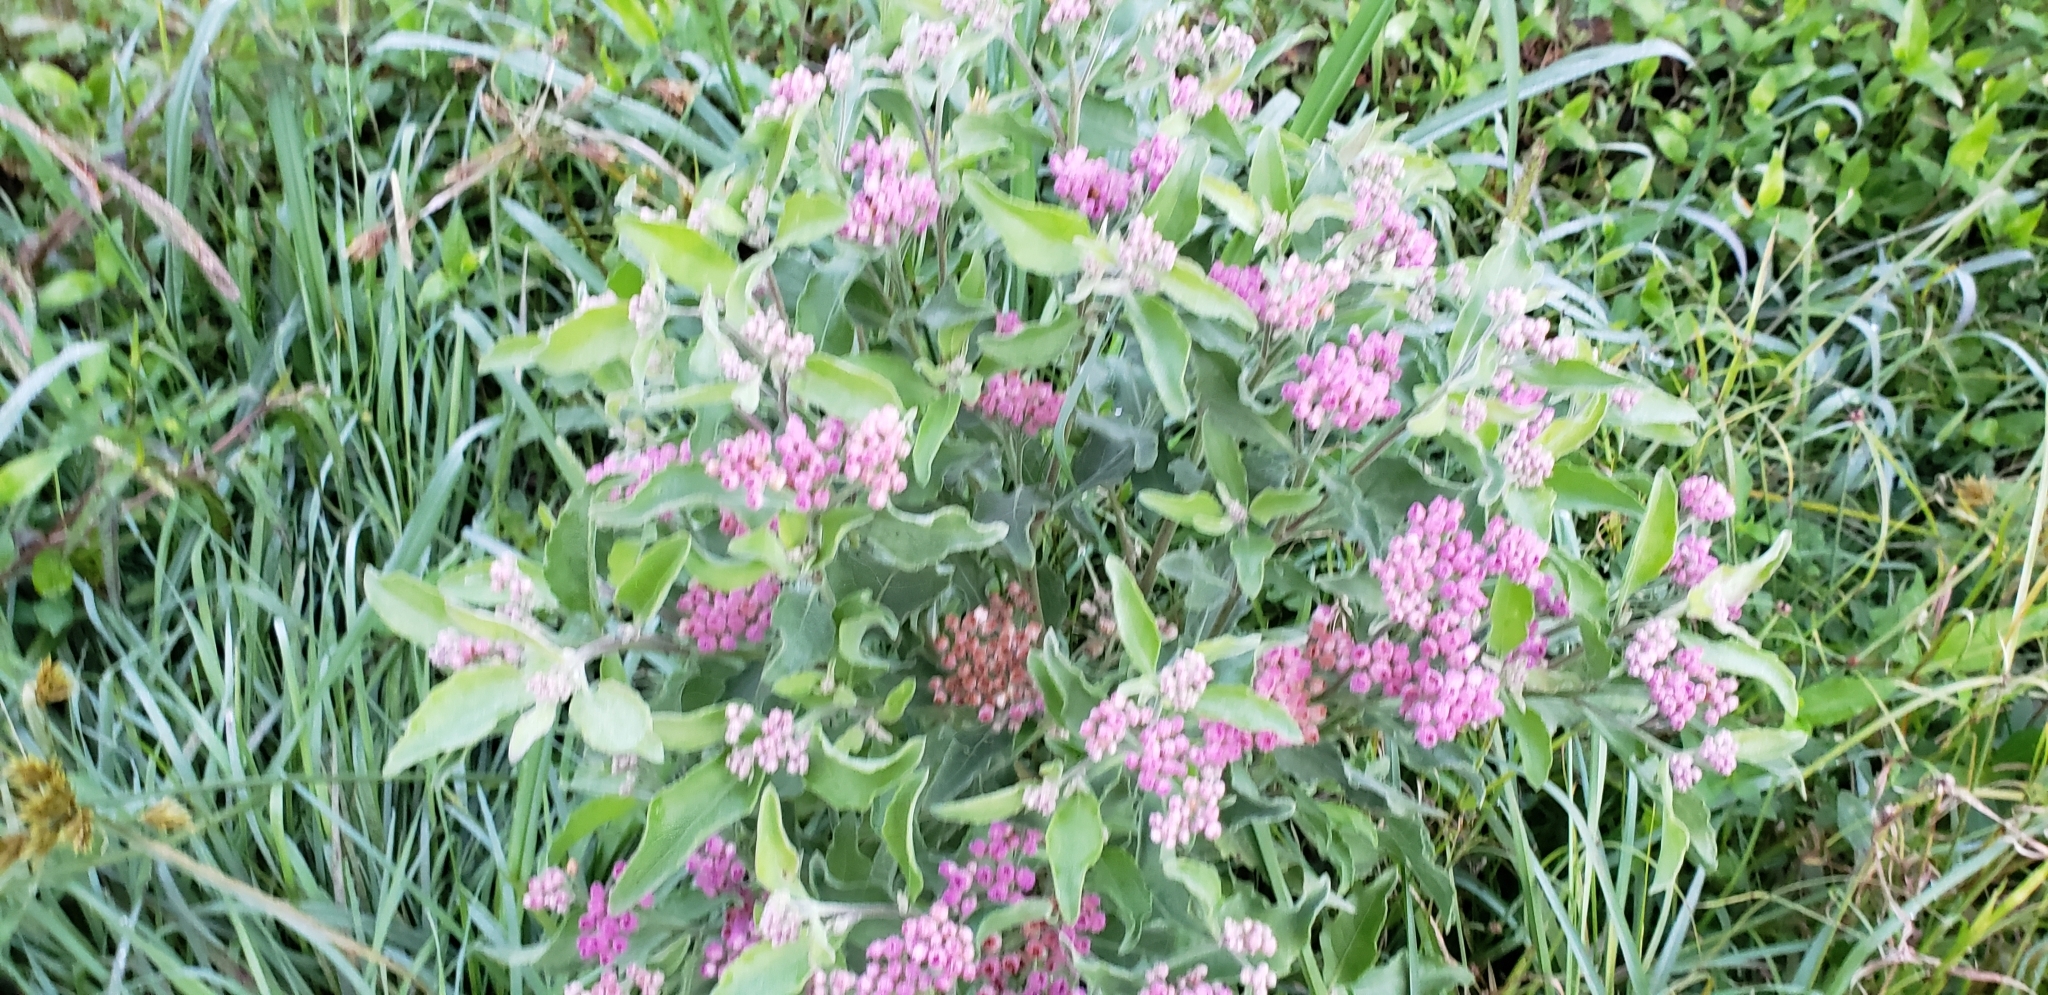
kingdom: Plantae
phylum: Tracheophyta
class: Magnoliopsida
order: Asterales
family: Asteraceae
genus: Pluchea
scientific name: Pluchea odorata
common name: Saltmarsh fleabane
